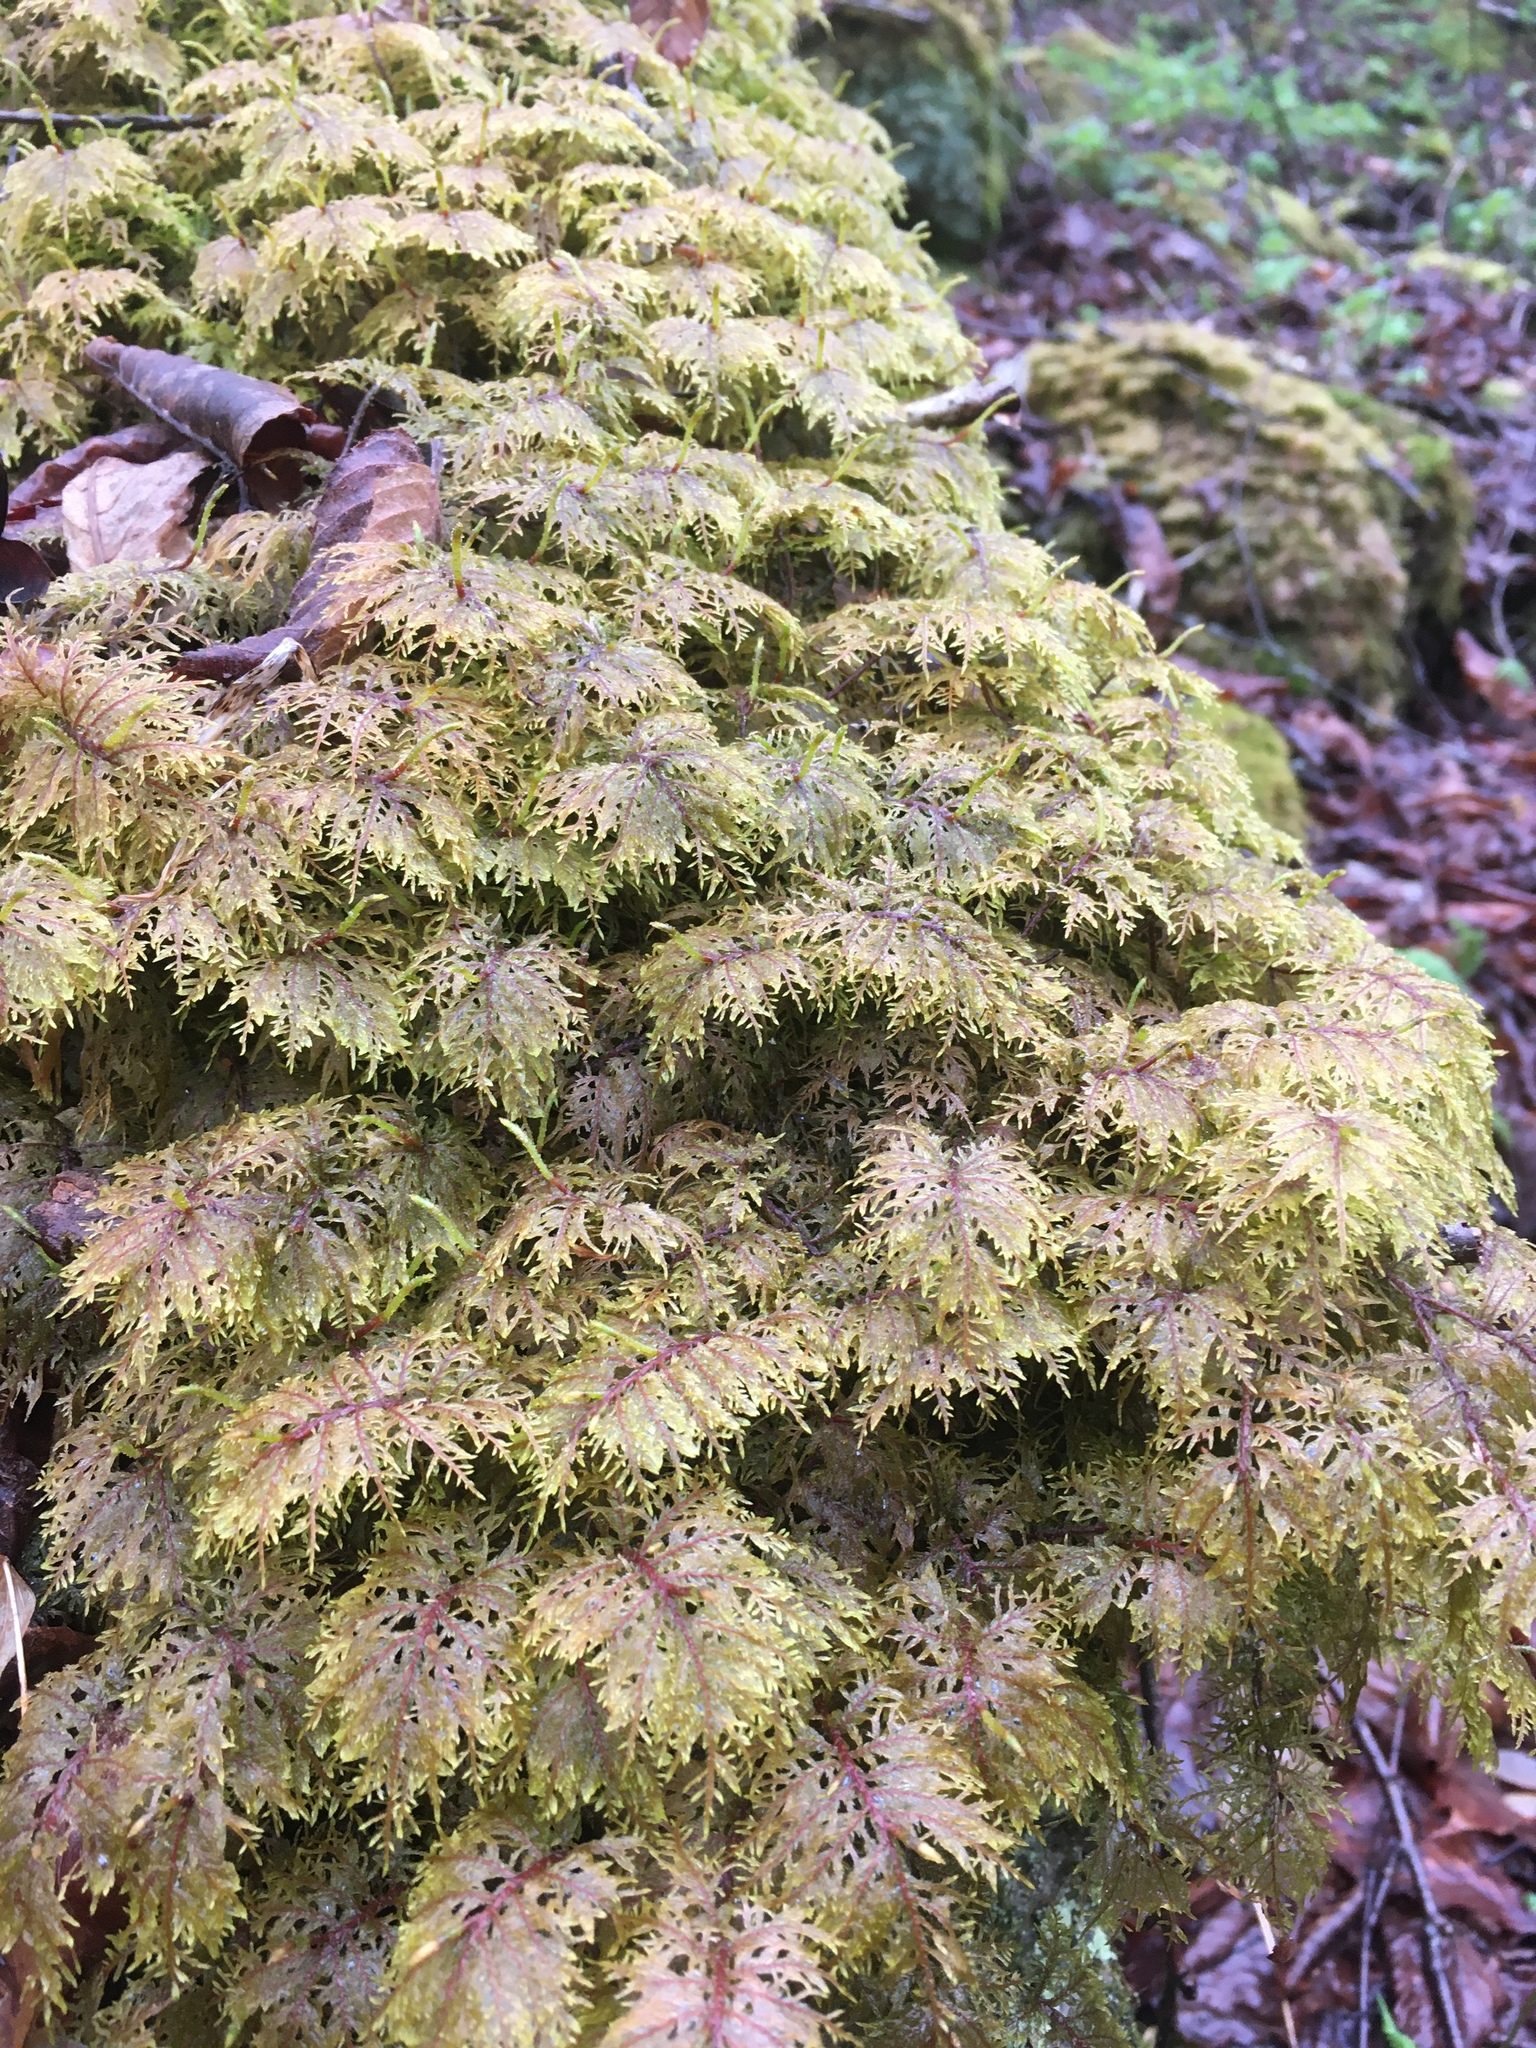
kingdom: Plantae
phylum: Bryophyta
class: Bryopsida
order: Hypnales
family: Hylocomiaceae
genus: Hylocomium
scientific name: Hylocomium splendens
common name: Stairstep moss
